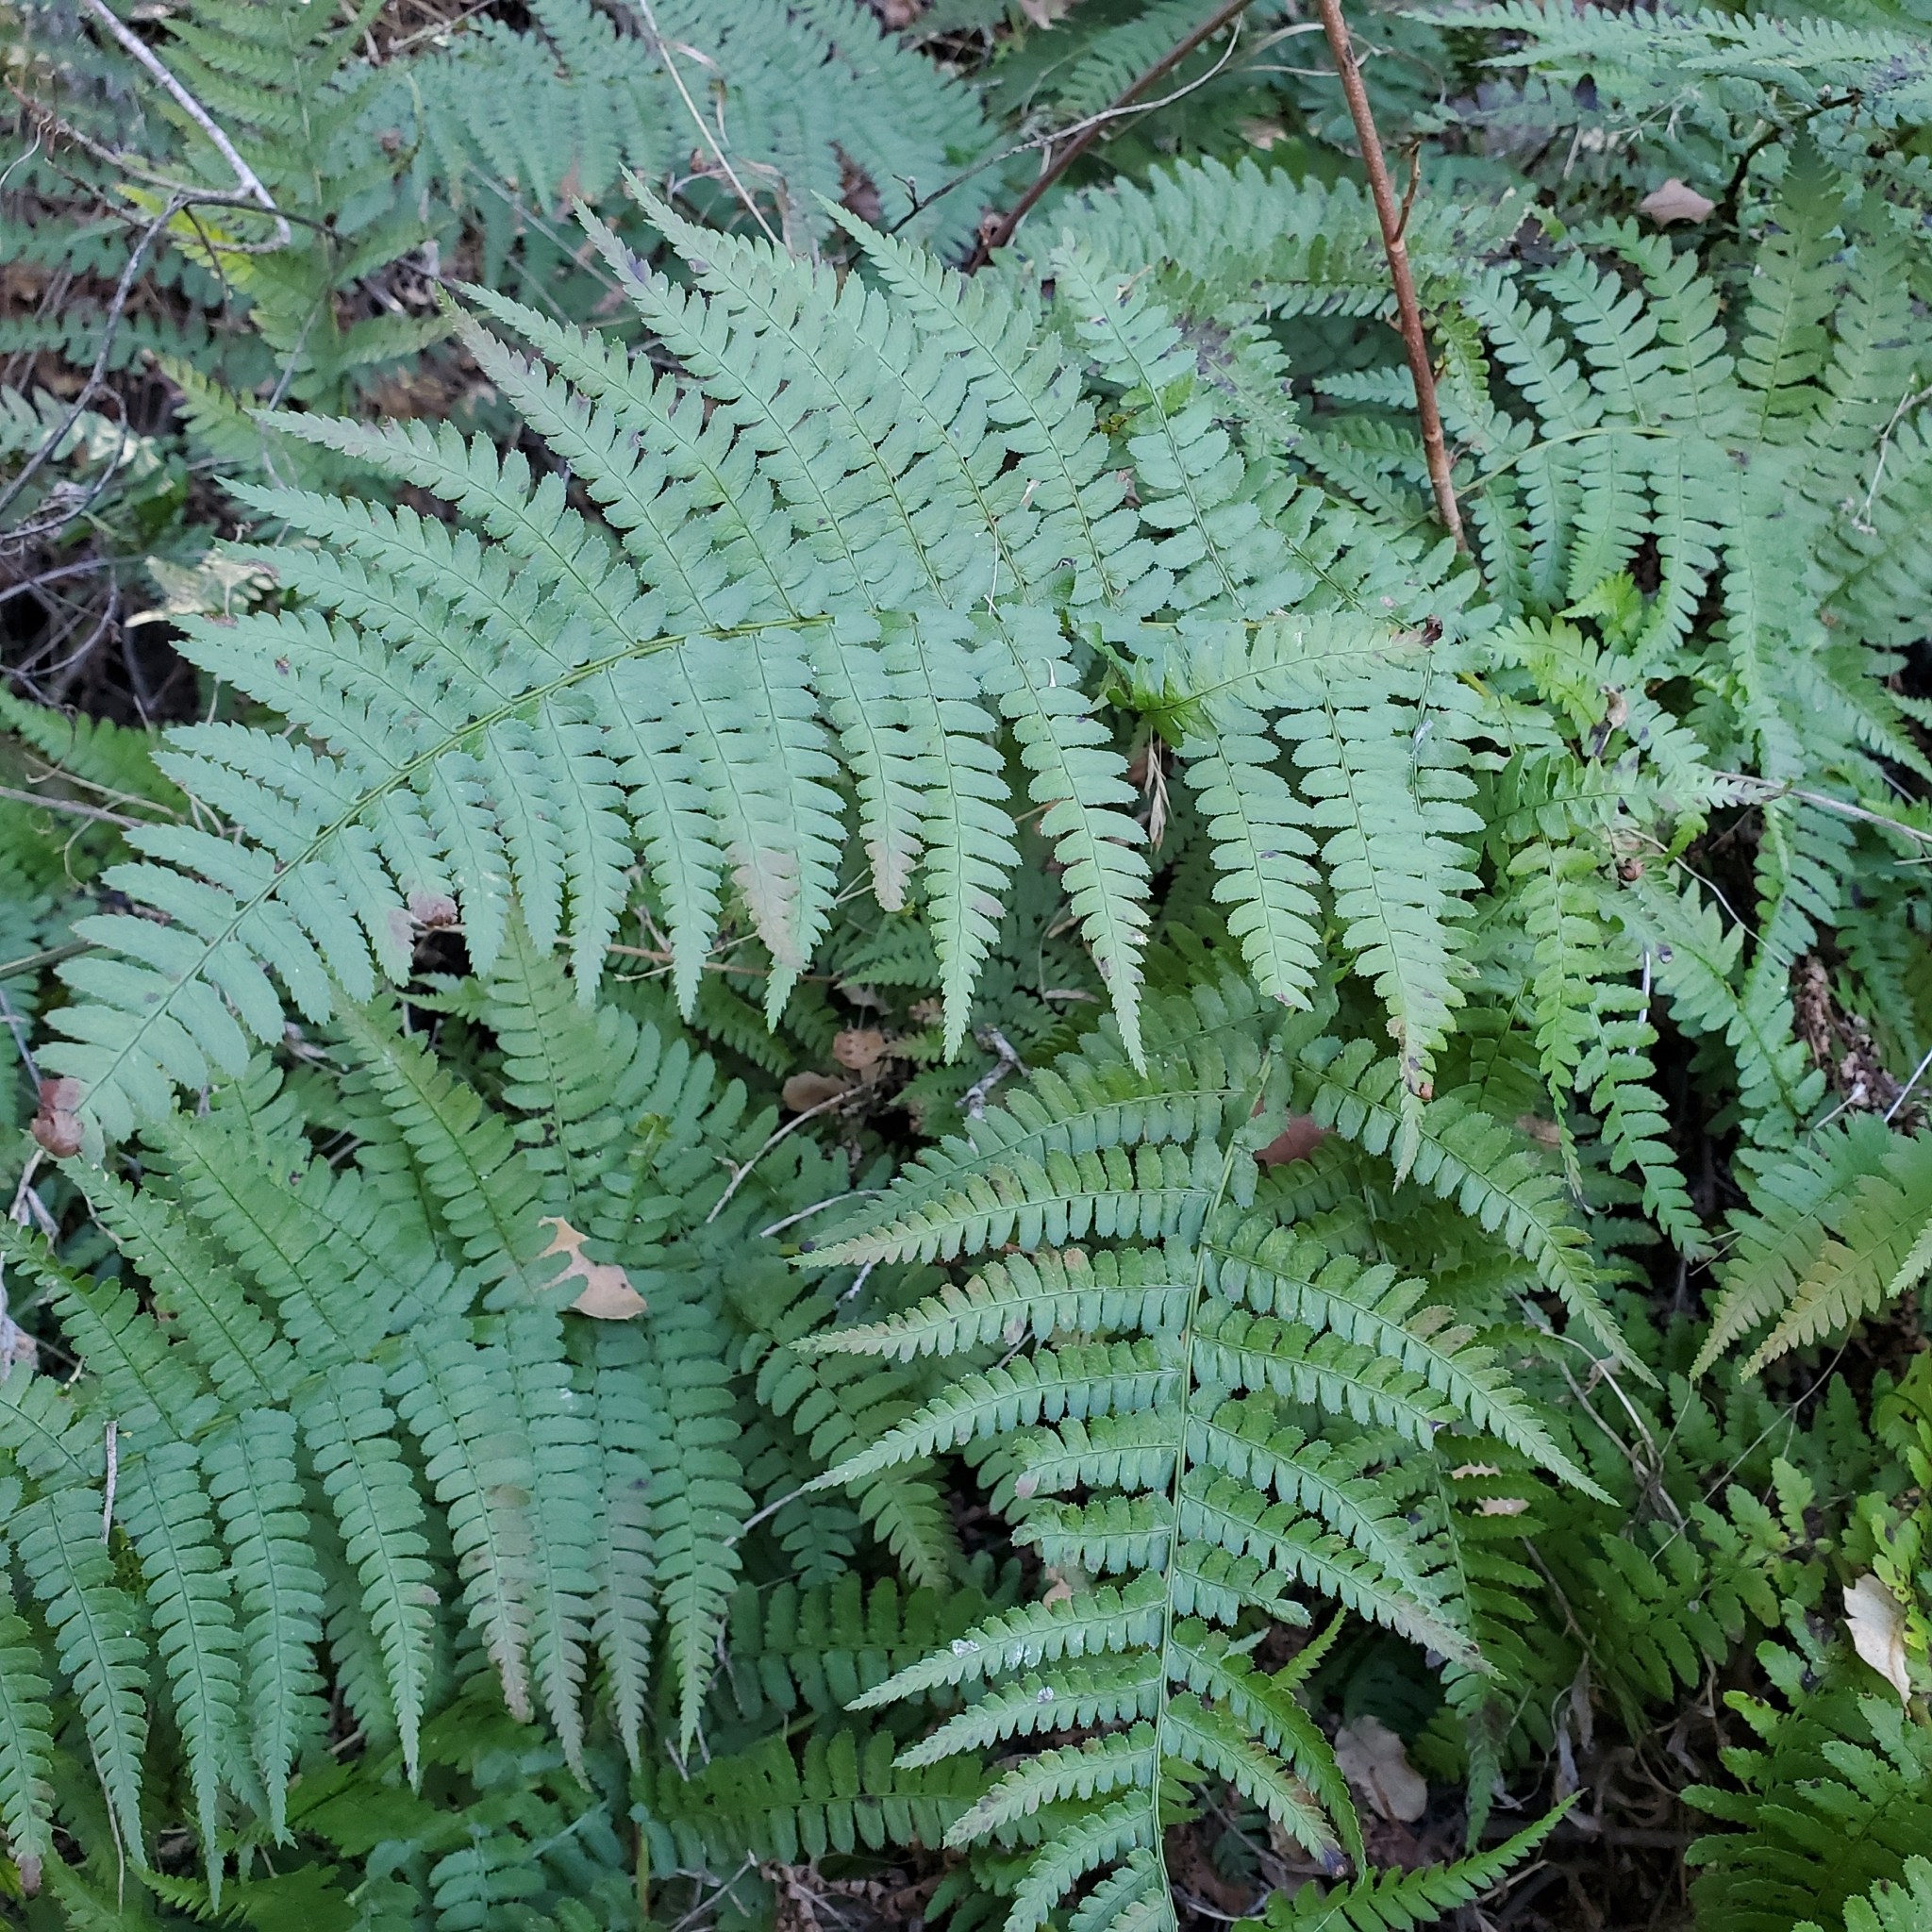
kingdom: Plantae
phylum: Tracheophyta
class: Polypodiopsida
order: Polypodiales
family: Dryopteridaceae
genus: Dryopteris
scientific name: Dryopteris arguta
